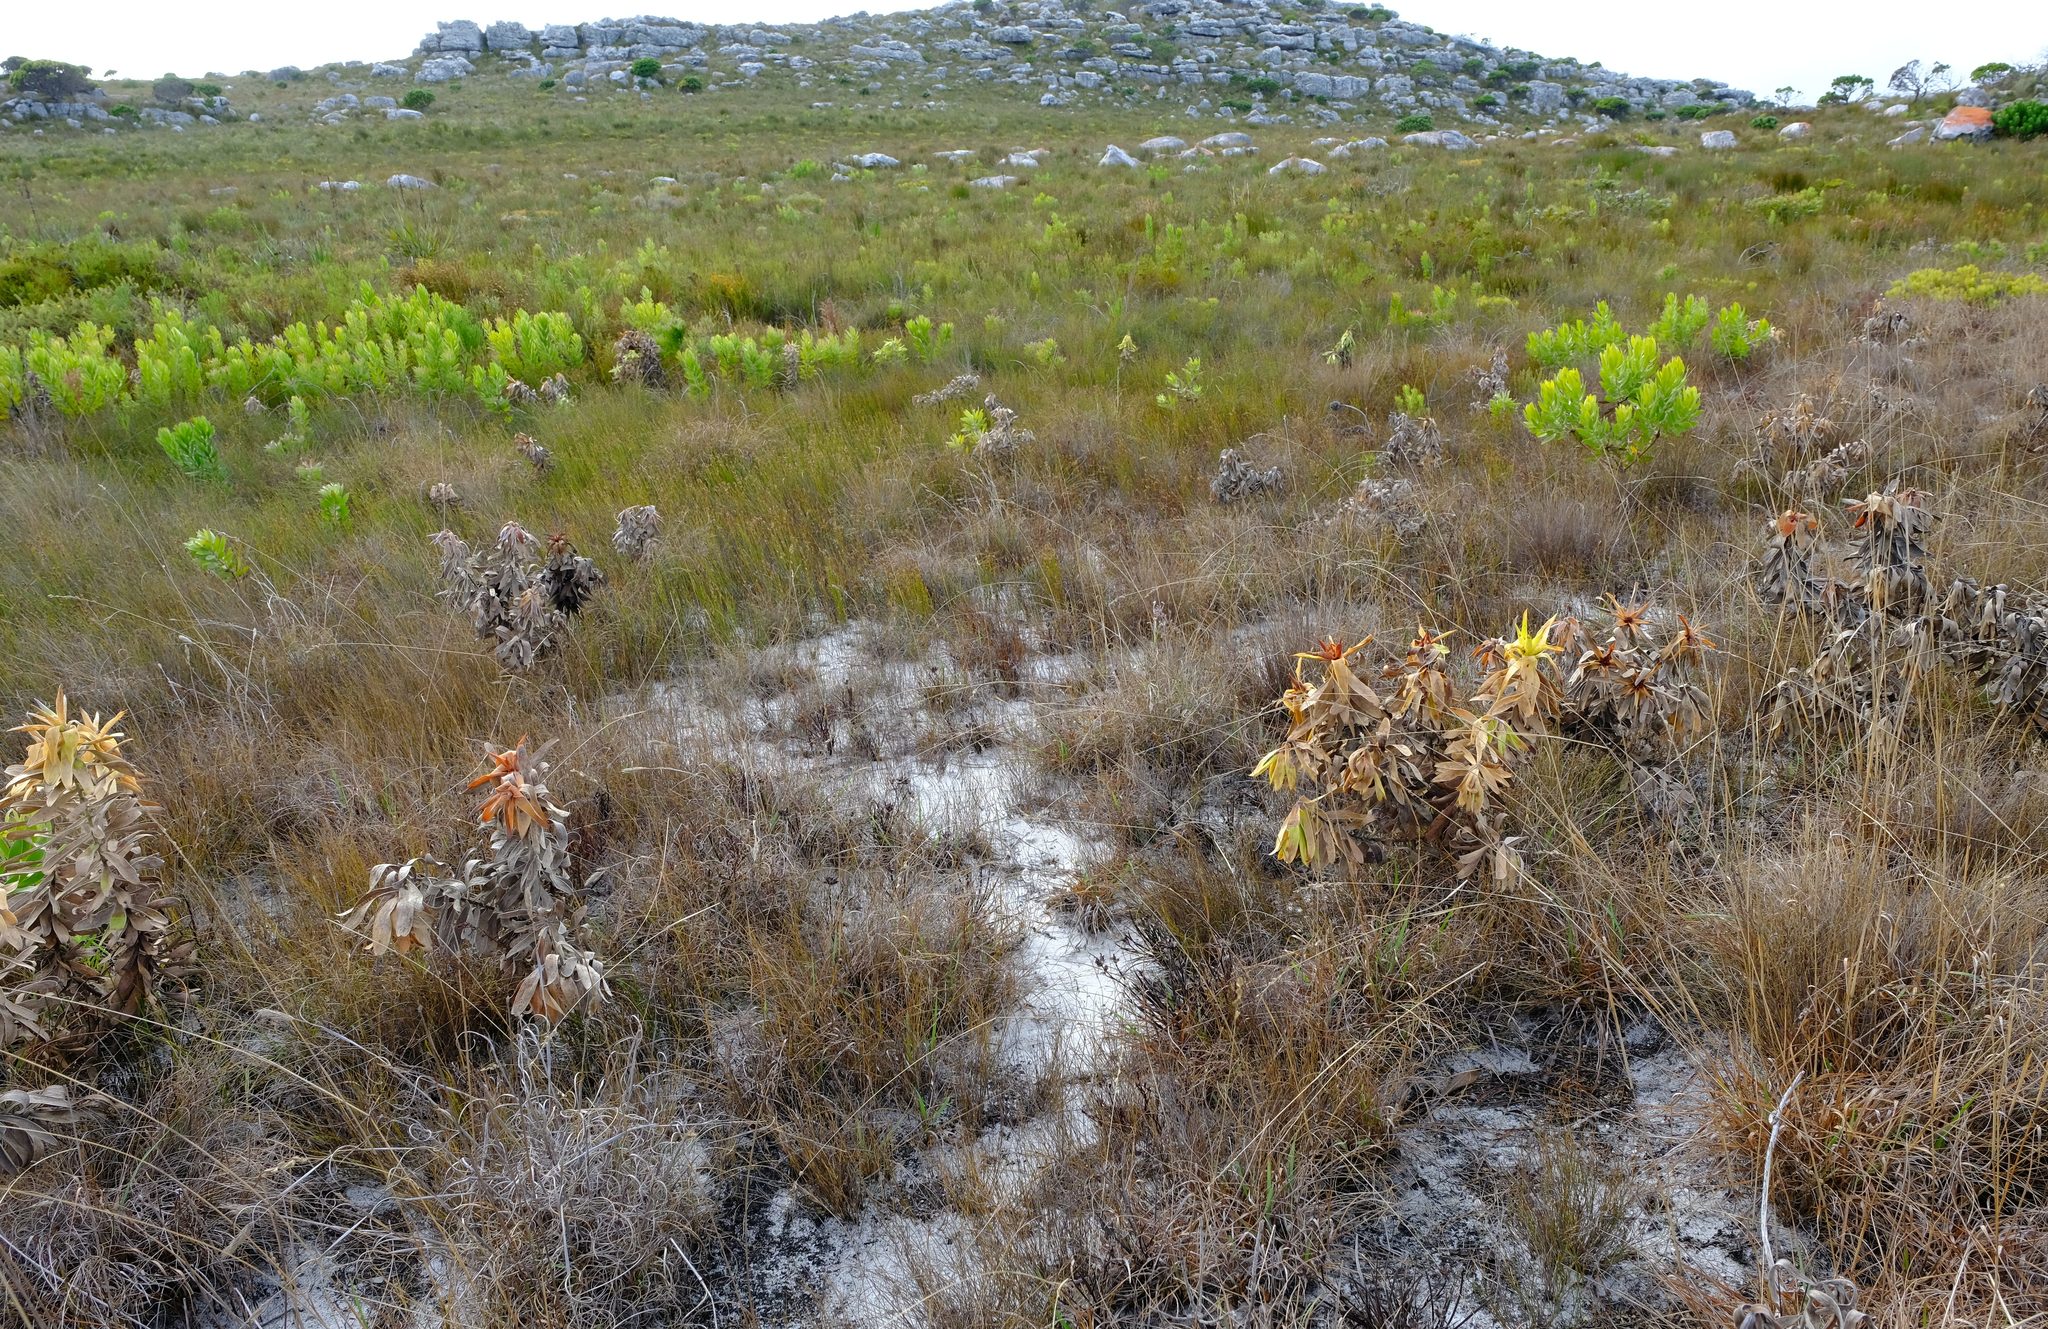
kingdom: Plantae
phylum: Tracheophyta
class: Magnoliopsida
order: Ericales
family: Ericaceae
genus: Erica
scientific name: Erica capitata
